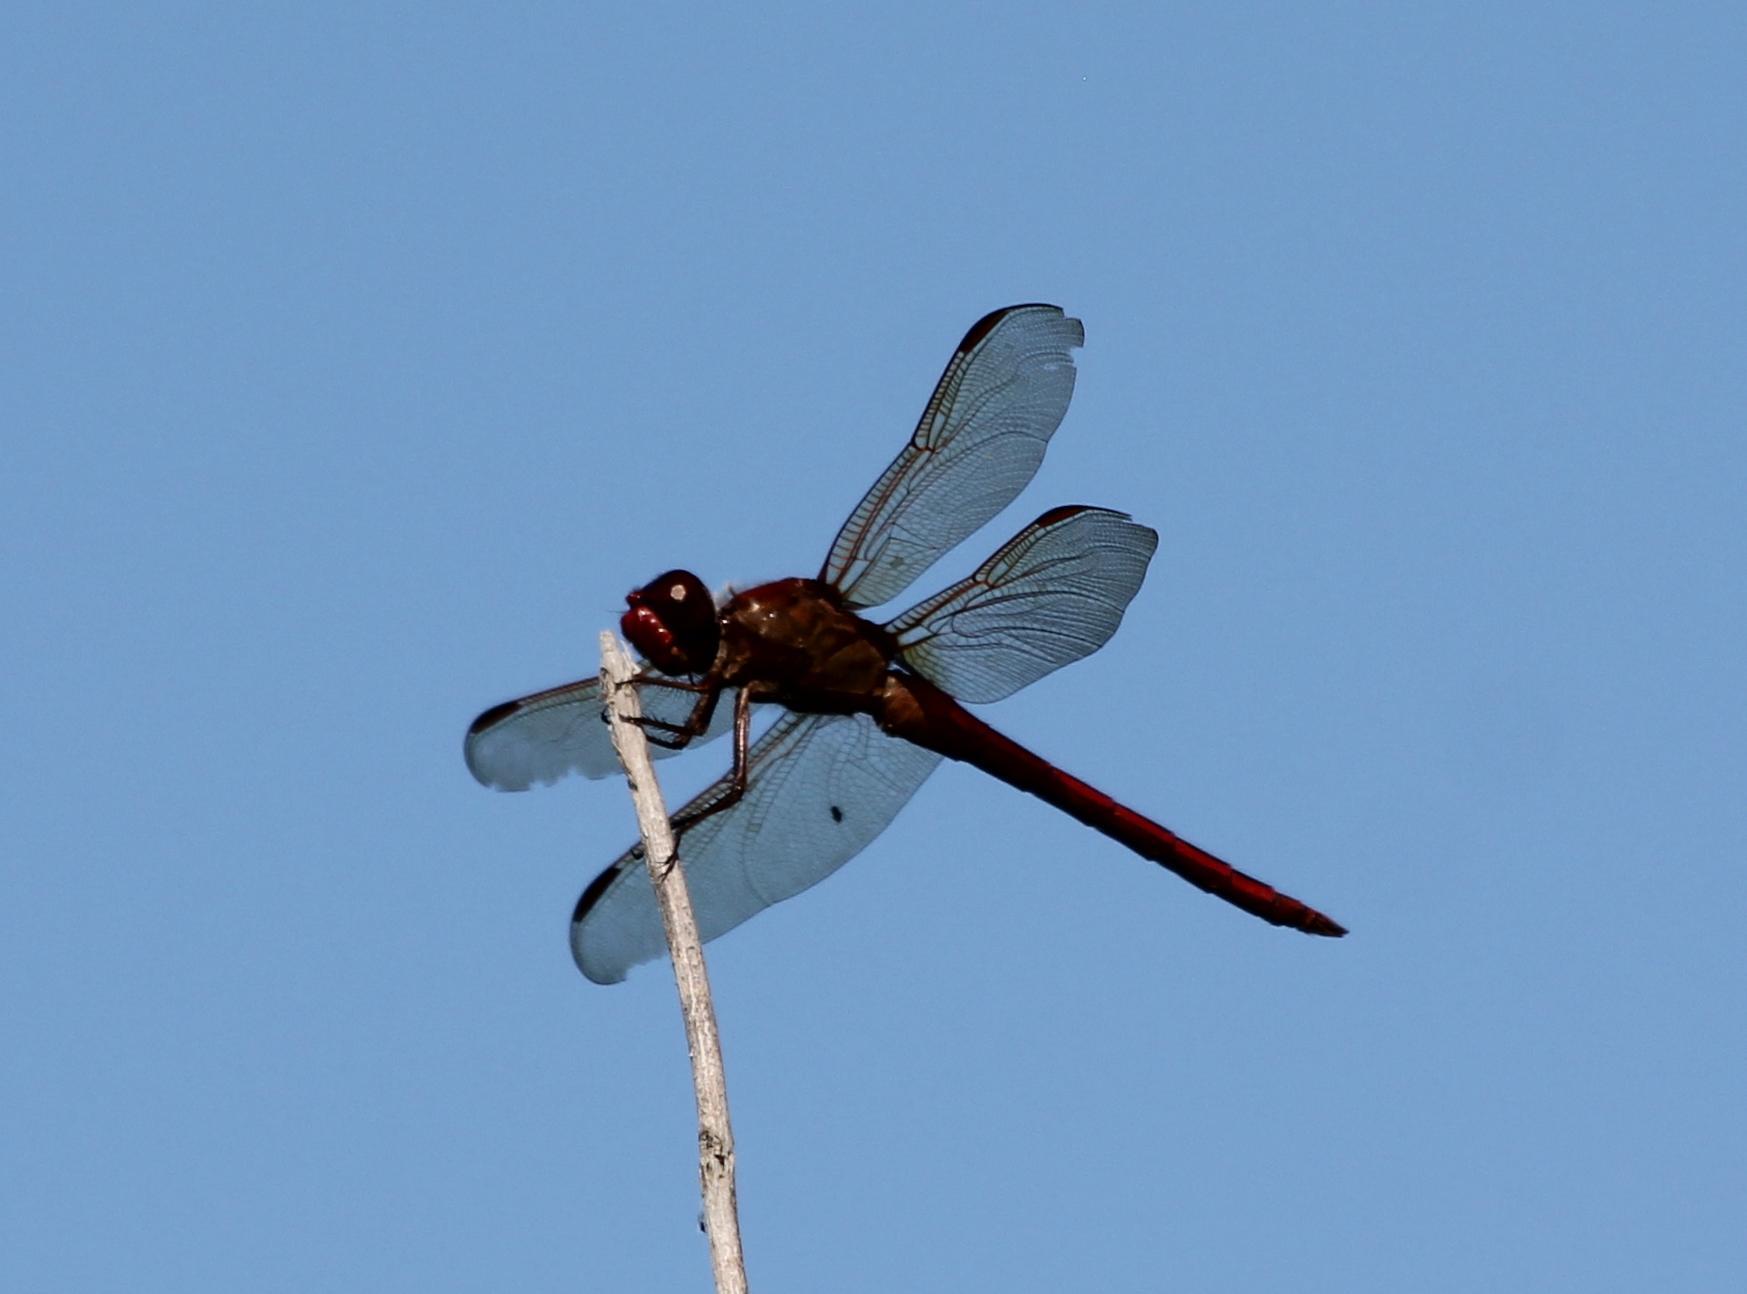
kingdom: Animalia
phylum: Arthropoda
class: Insecta
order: Odonata
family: Libellulidae
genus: Libellula
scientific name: Libellula needhami
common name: Needham's skimmer
